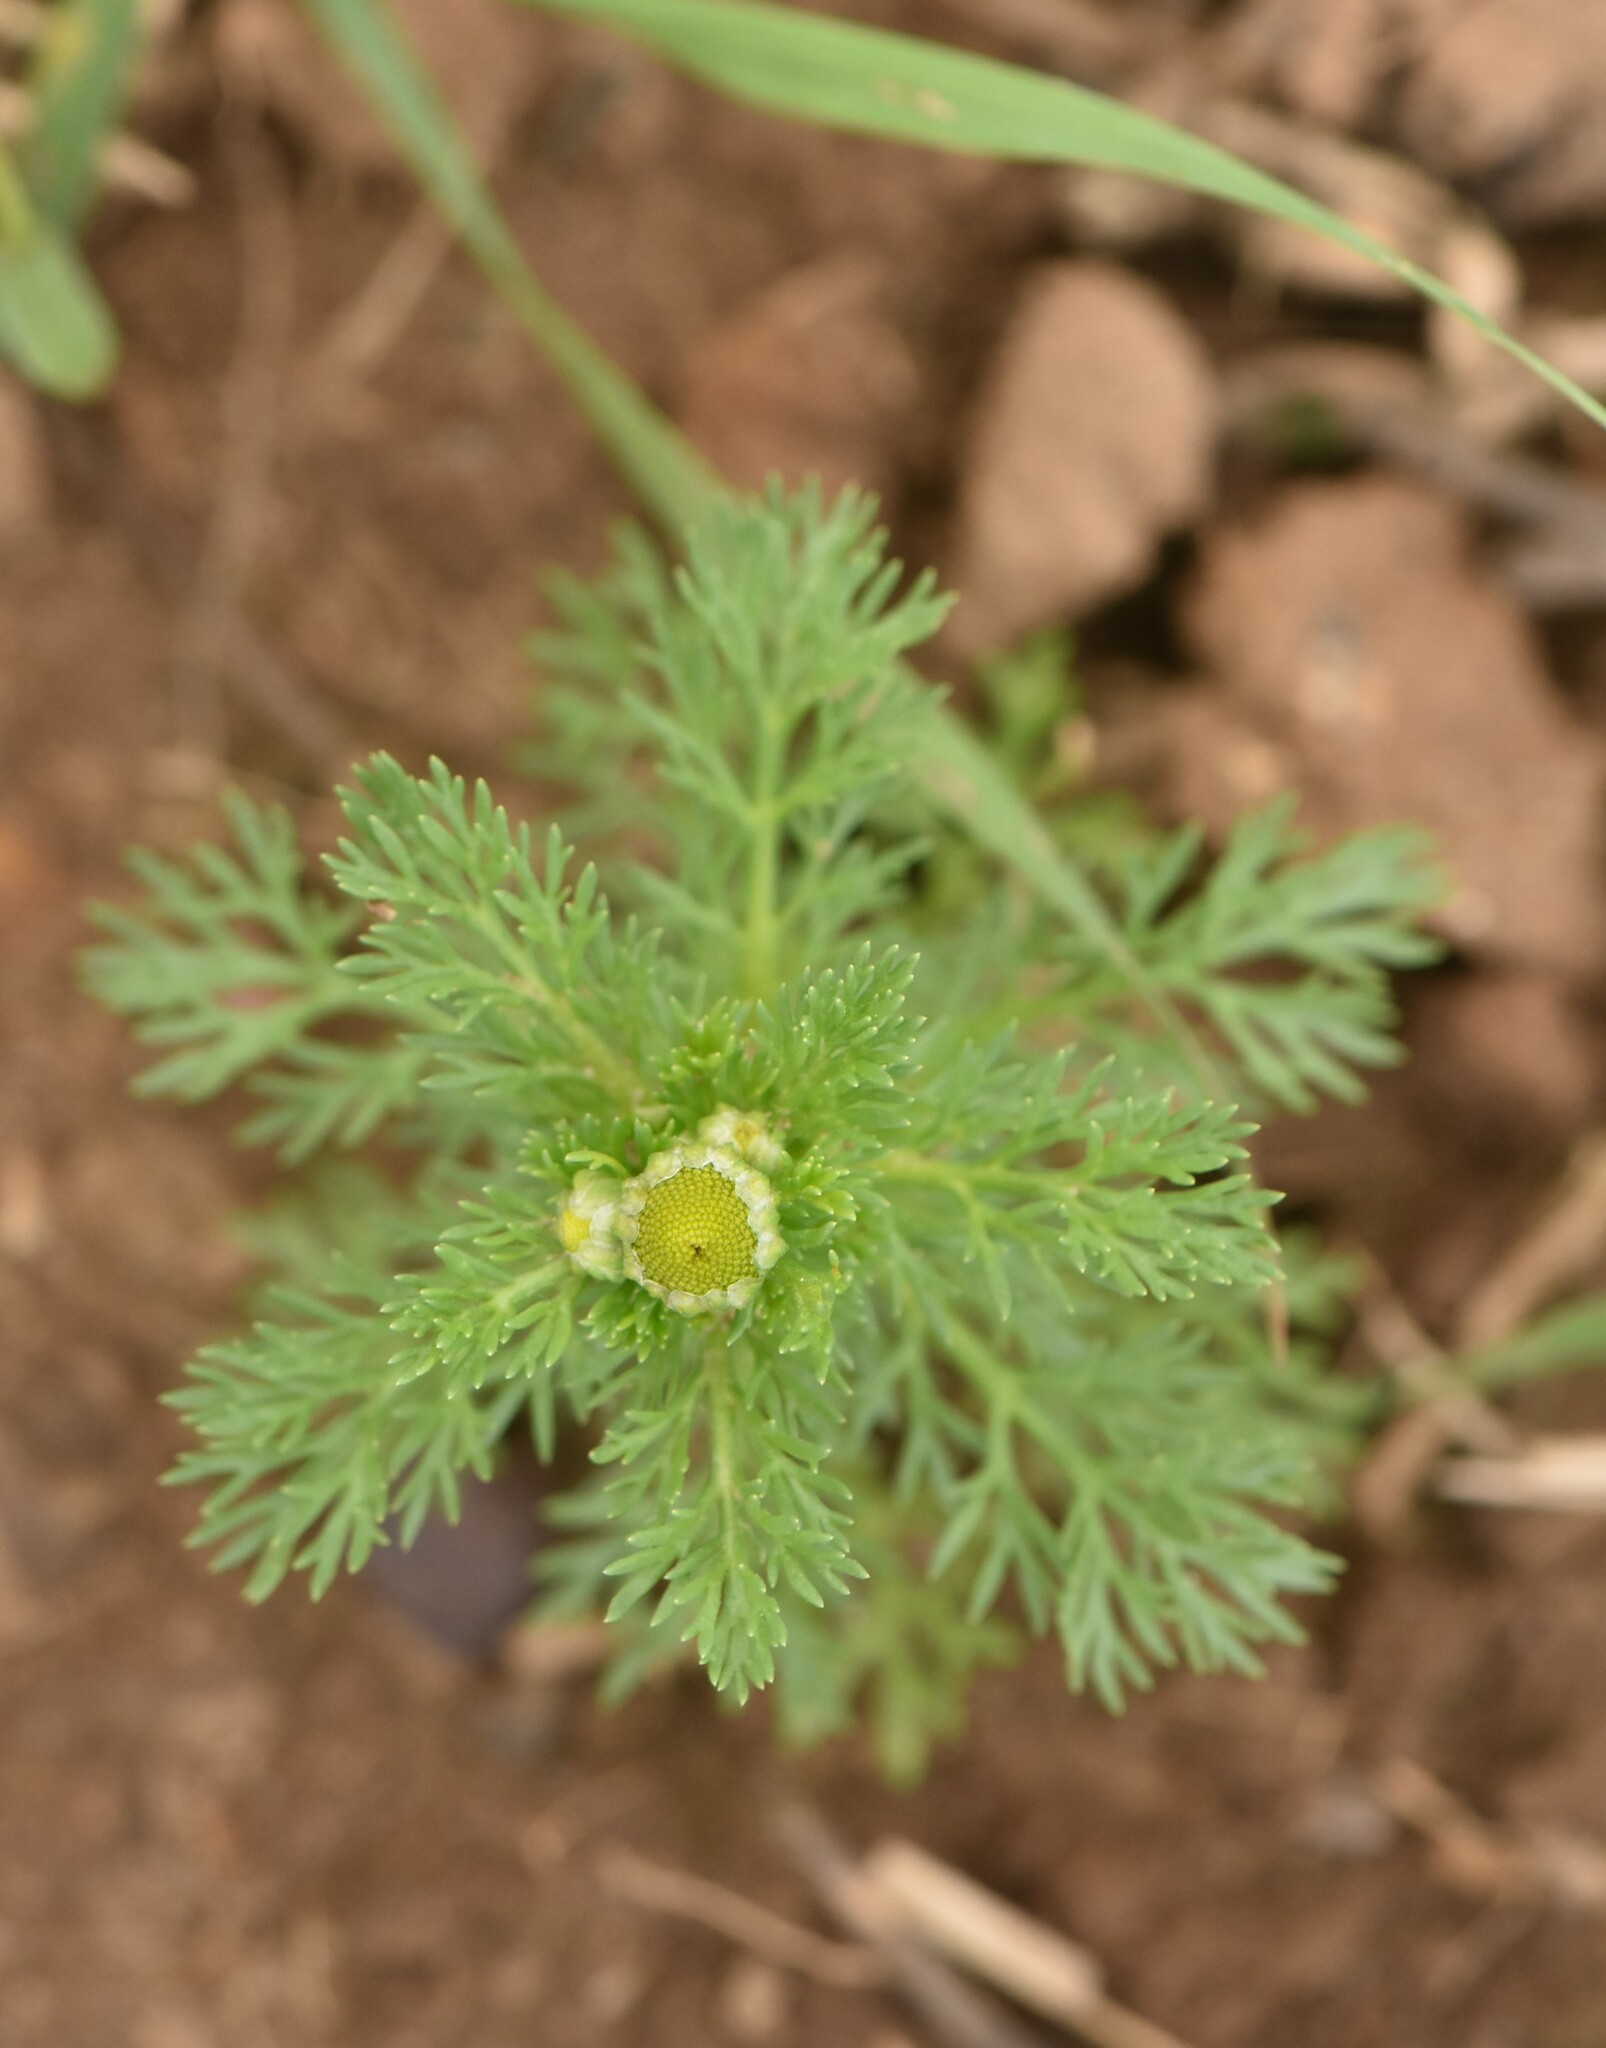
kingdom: Plantae
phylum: Tracheophyta
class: Magnoliopsida
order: Asterales
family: Asteraceae
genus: Matricaria
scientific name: Matricaria discoidea
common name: Disc mayweed
